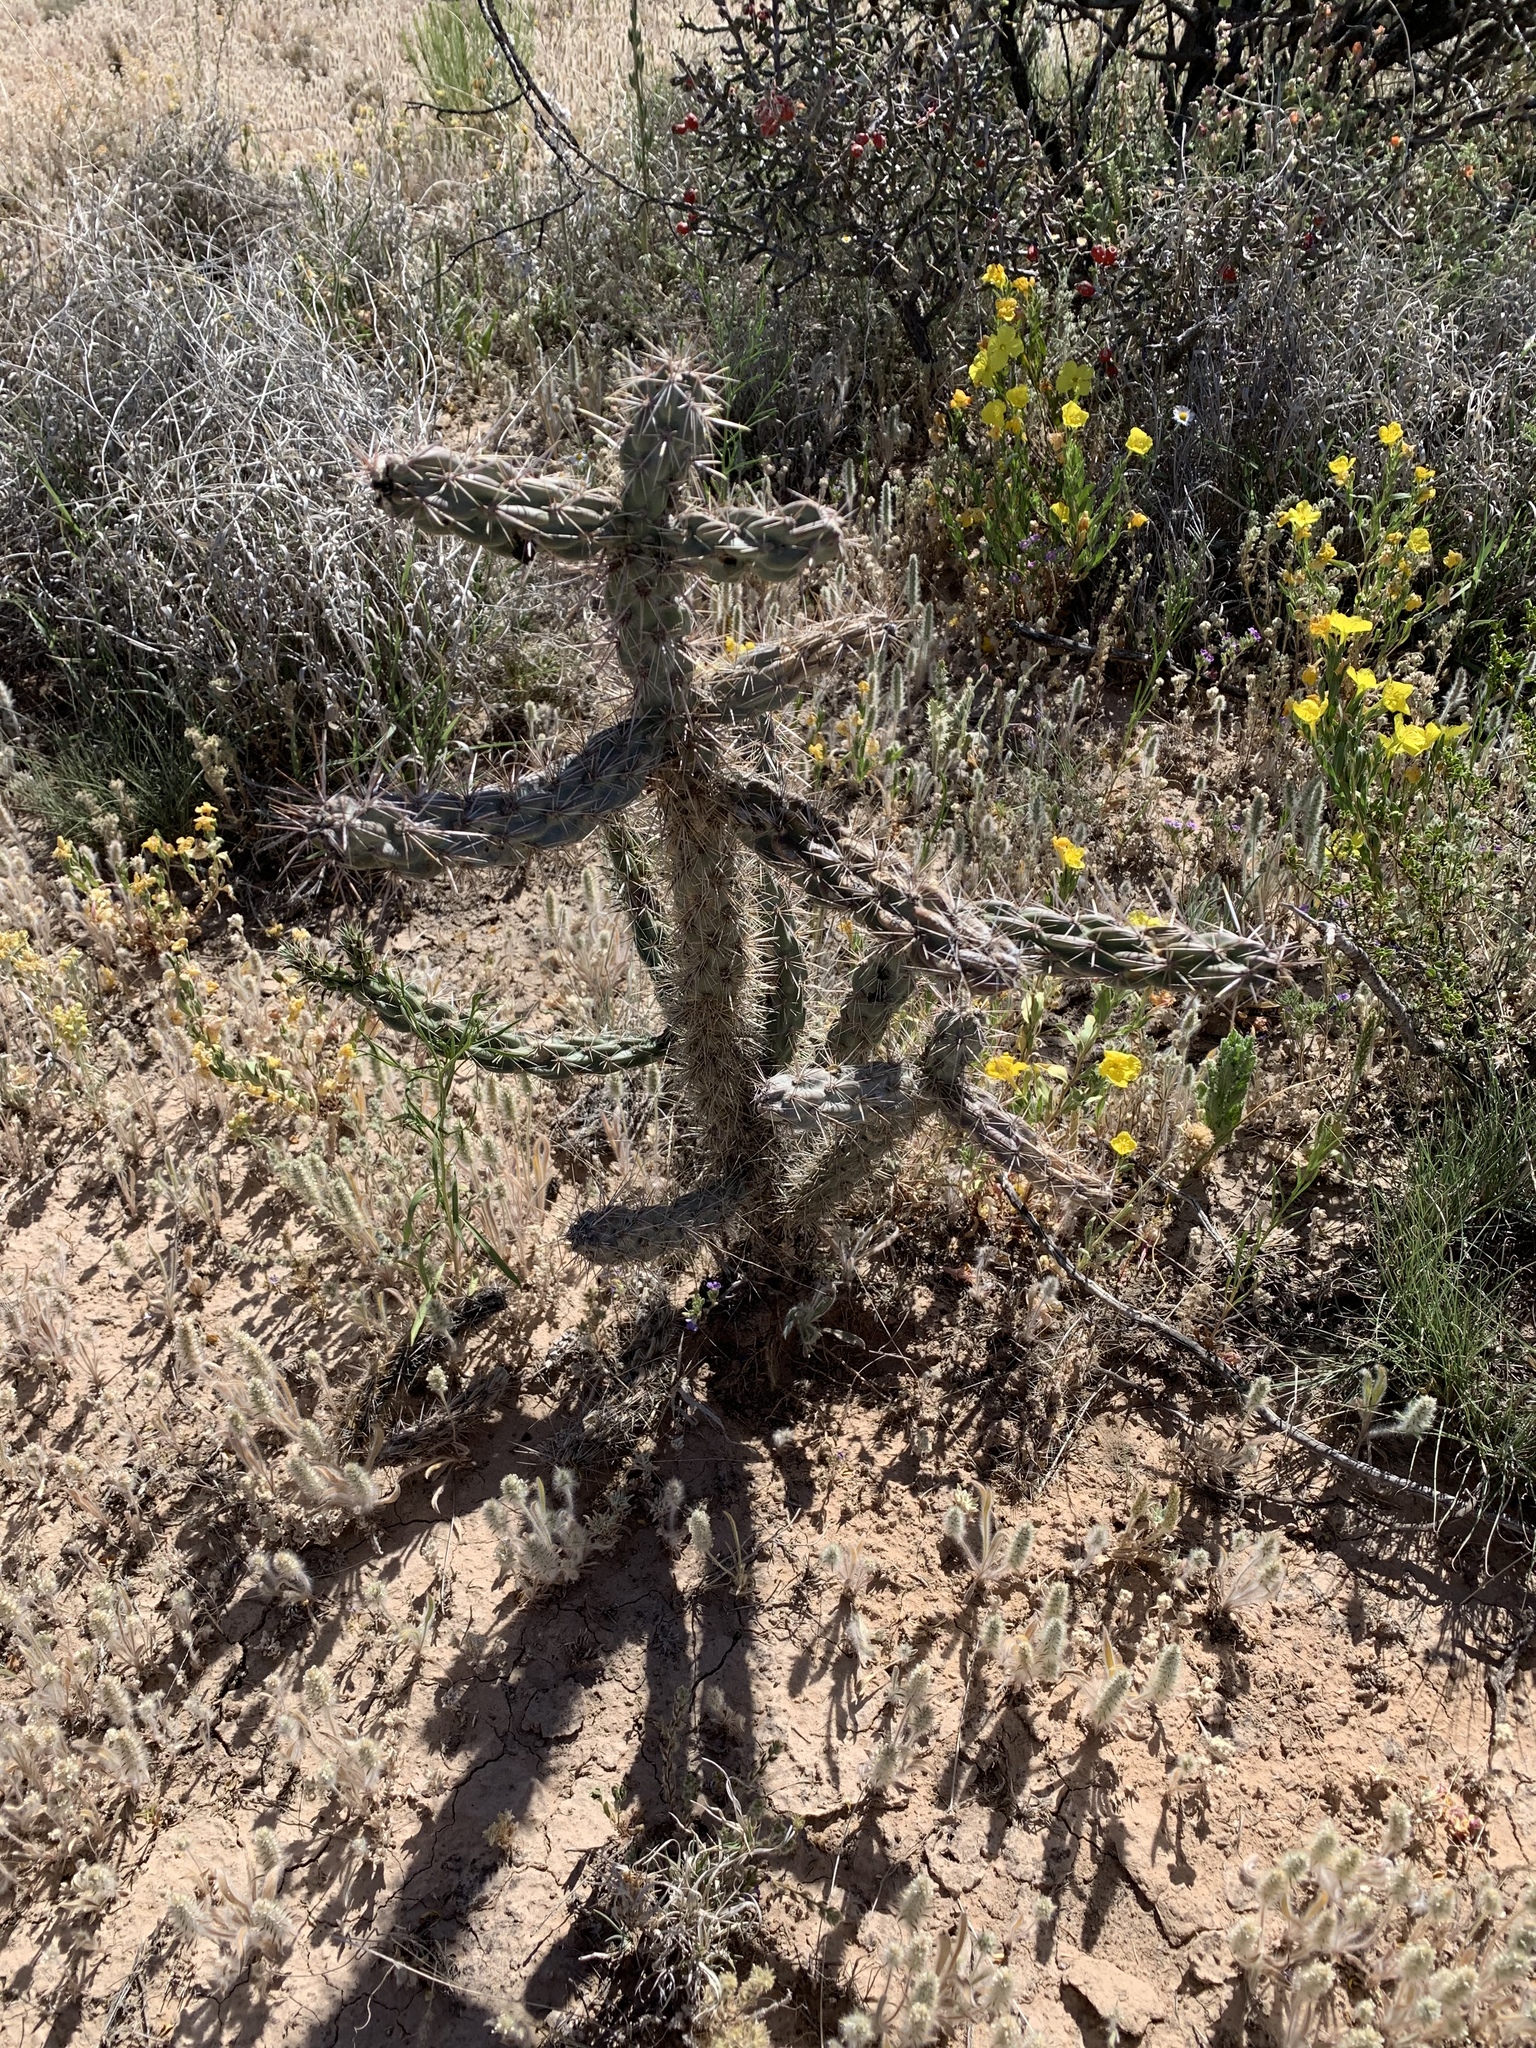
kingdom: Plantae
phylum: Tracheophyta
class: Magnoliopsida
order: Caryophyllales
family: Cactaceae
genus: Cylindropuntia
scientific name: Cylindropuntia imbricata
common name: Candelabrum cactus
